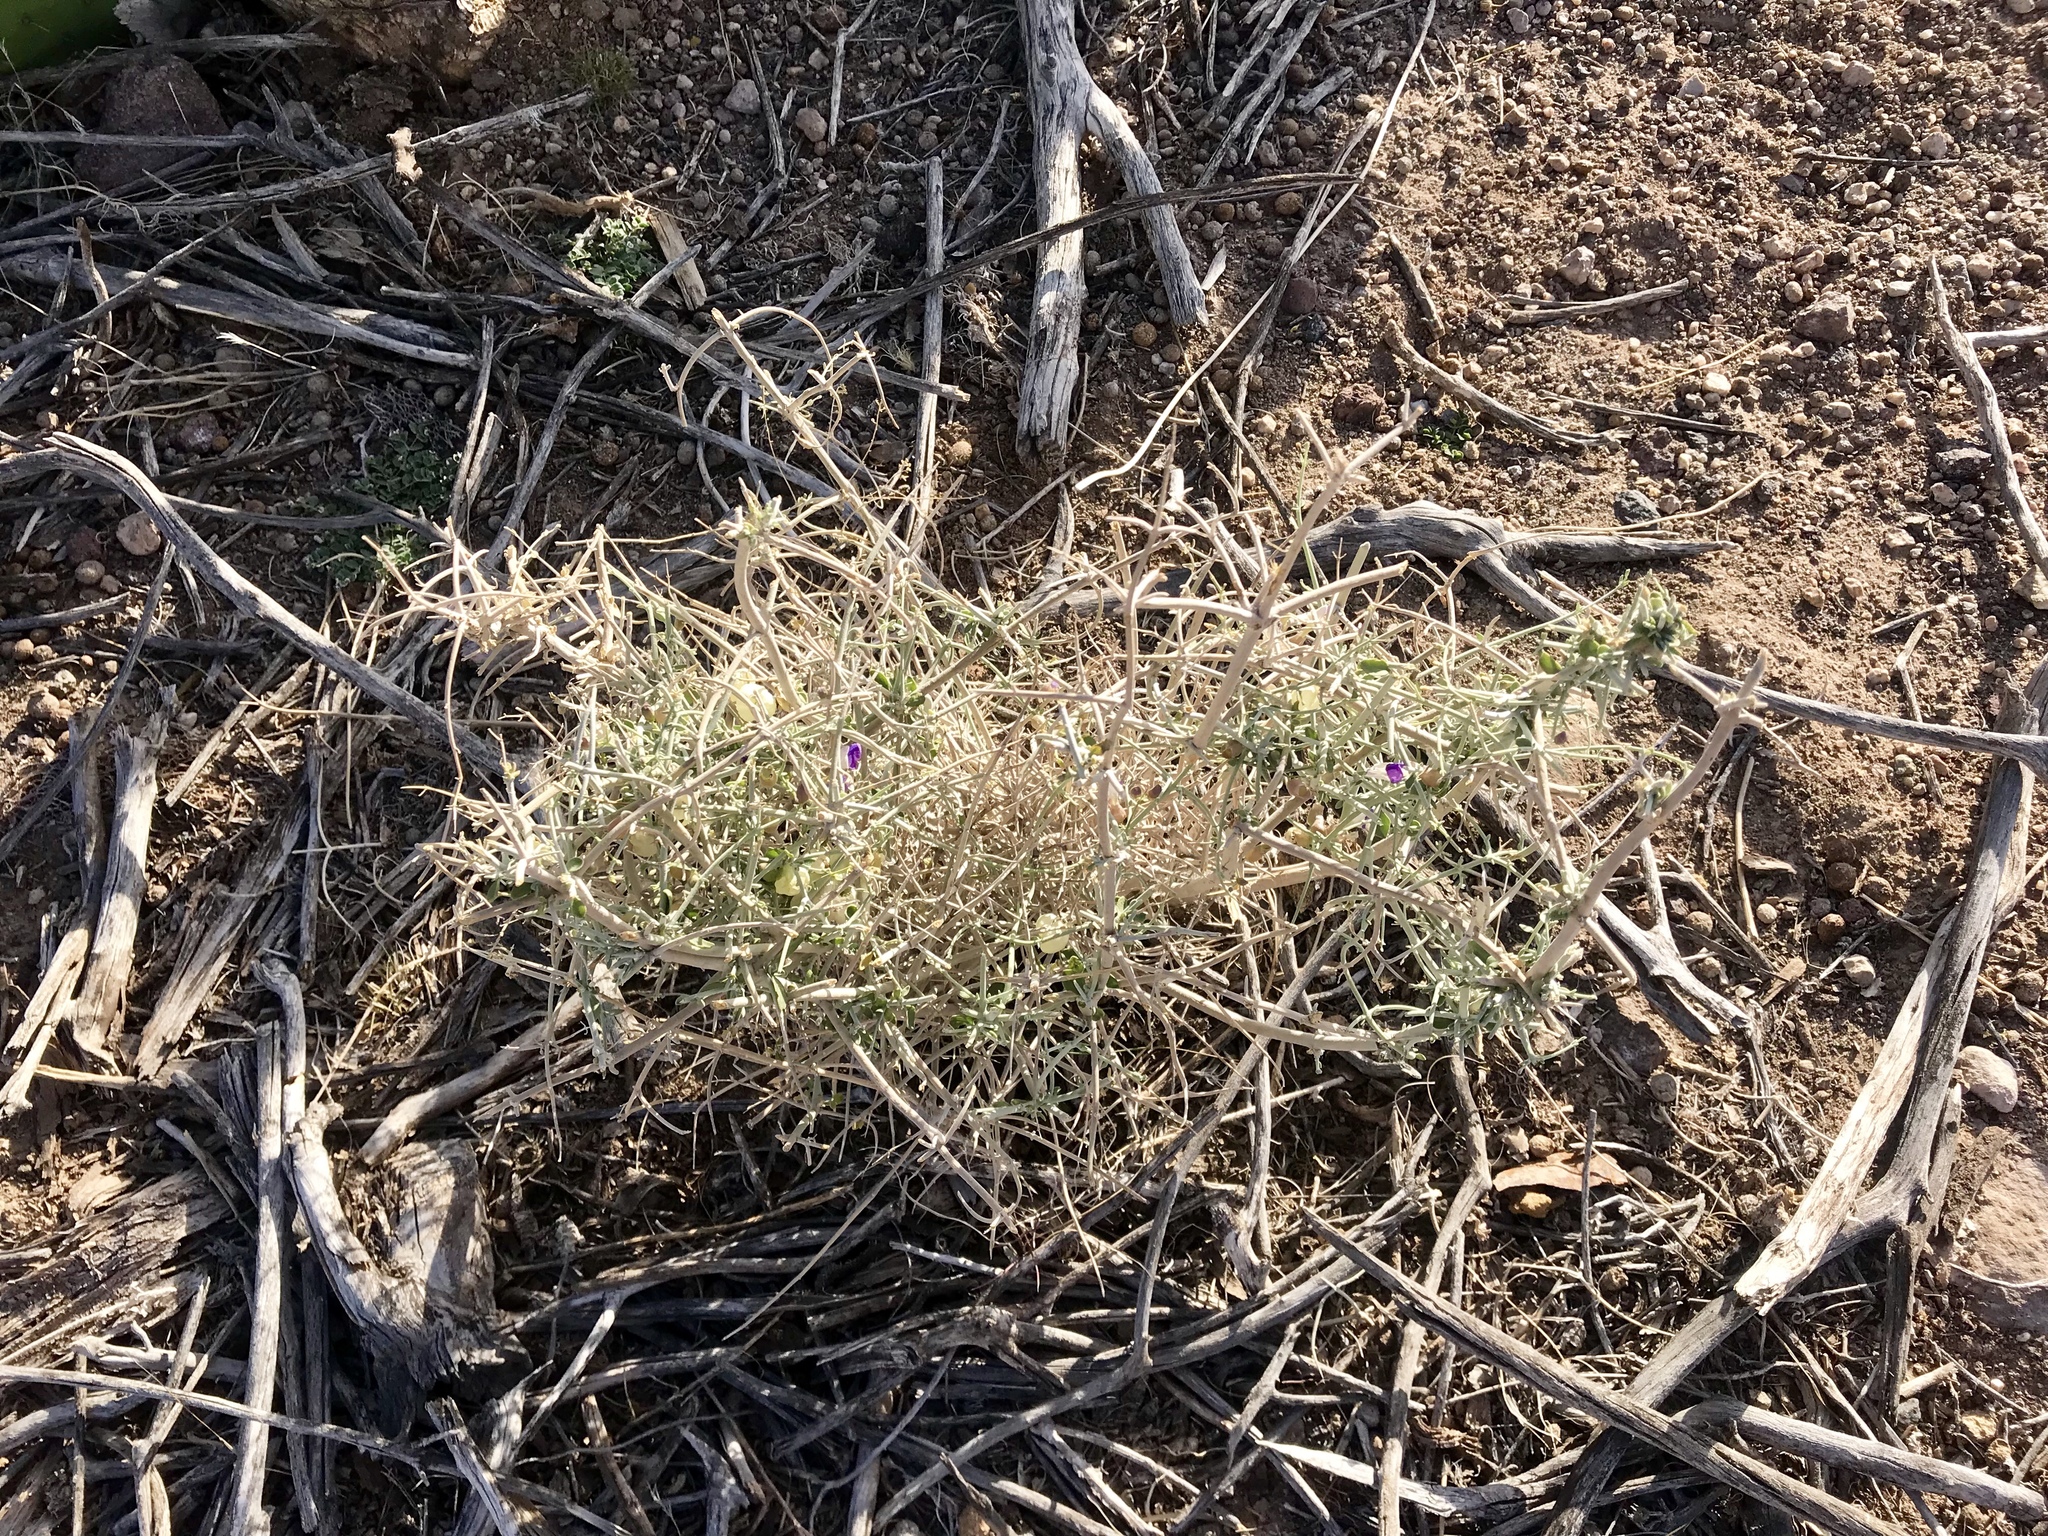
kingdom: Plantae
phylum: Tracheophyta
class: Magnoliopsida
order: Lamiales
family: Lamiaceae
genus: Scutellaria
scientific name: Scutellaria mexicana
